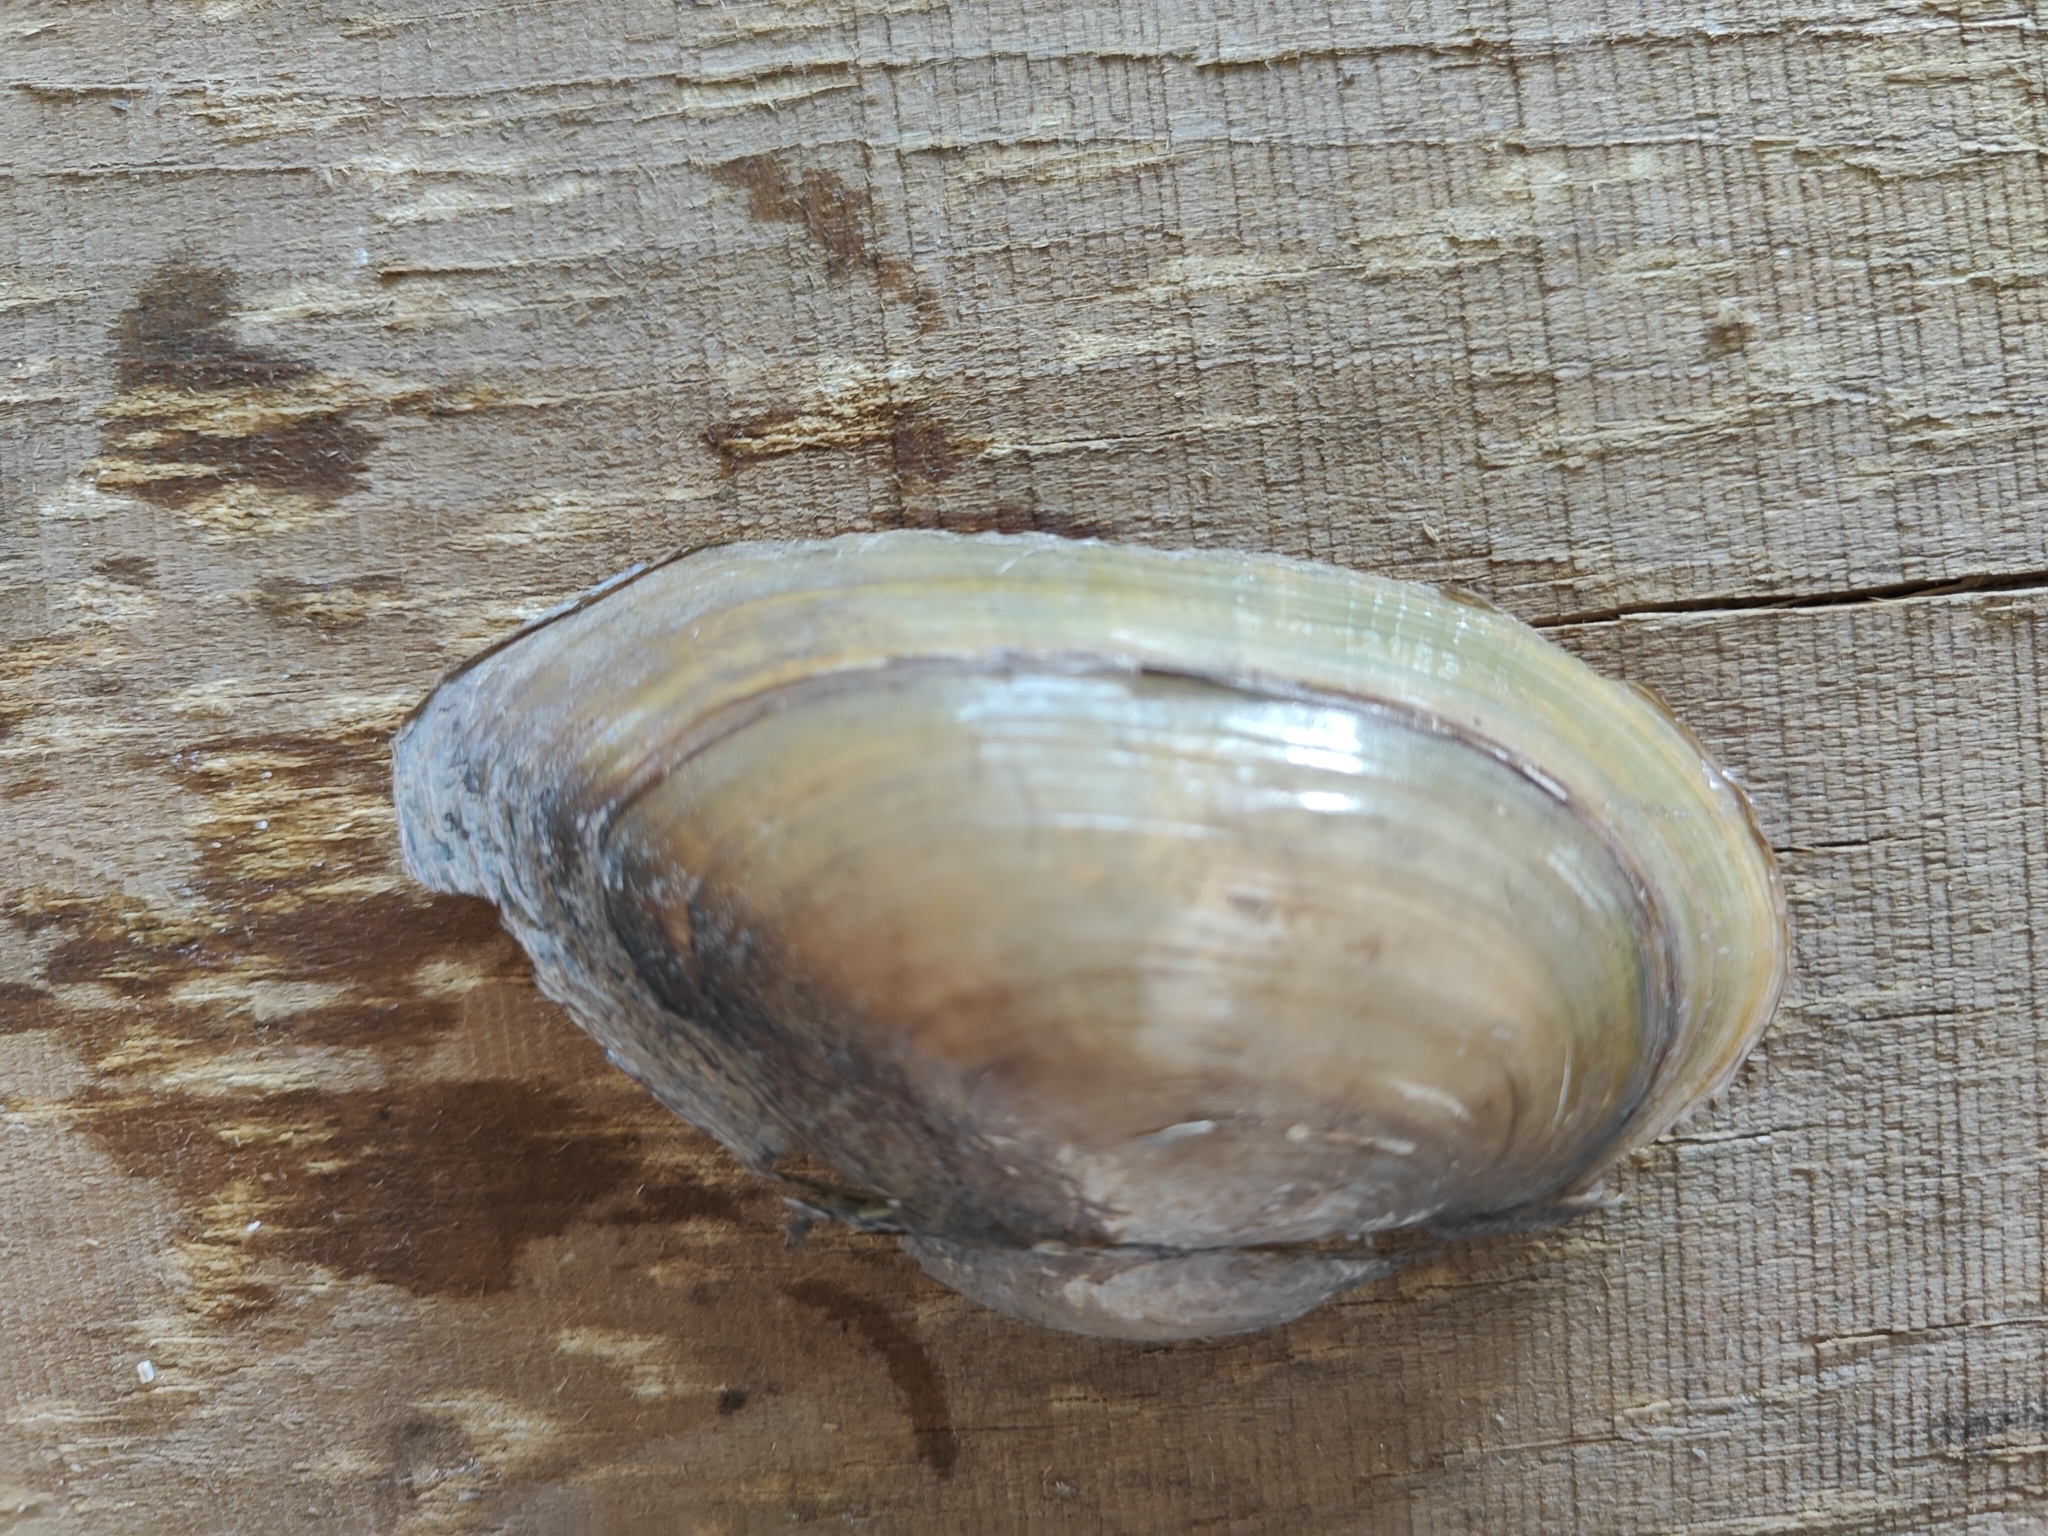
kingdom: Animalia
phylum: Mollusca
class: Bivalvia
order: Unionida
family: Unionidae
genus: Utterbackia
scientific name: Utterbackia imbecillis
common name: Paper pondshell
